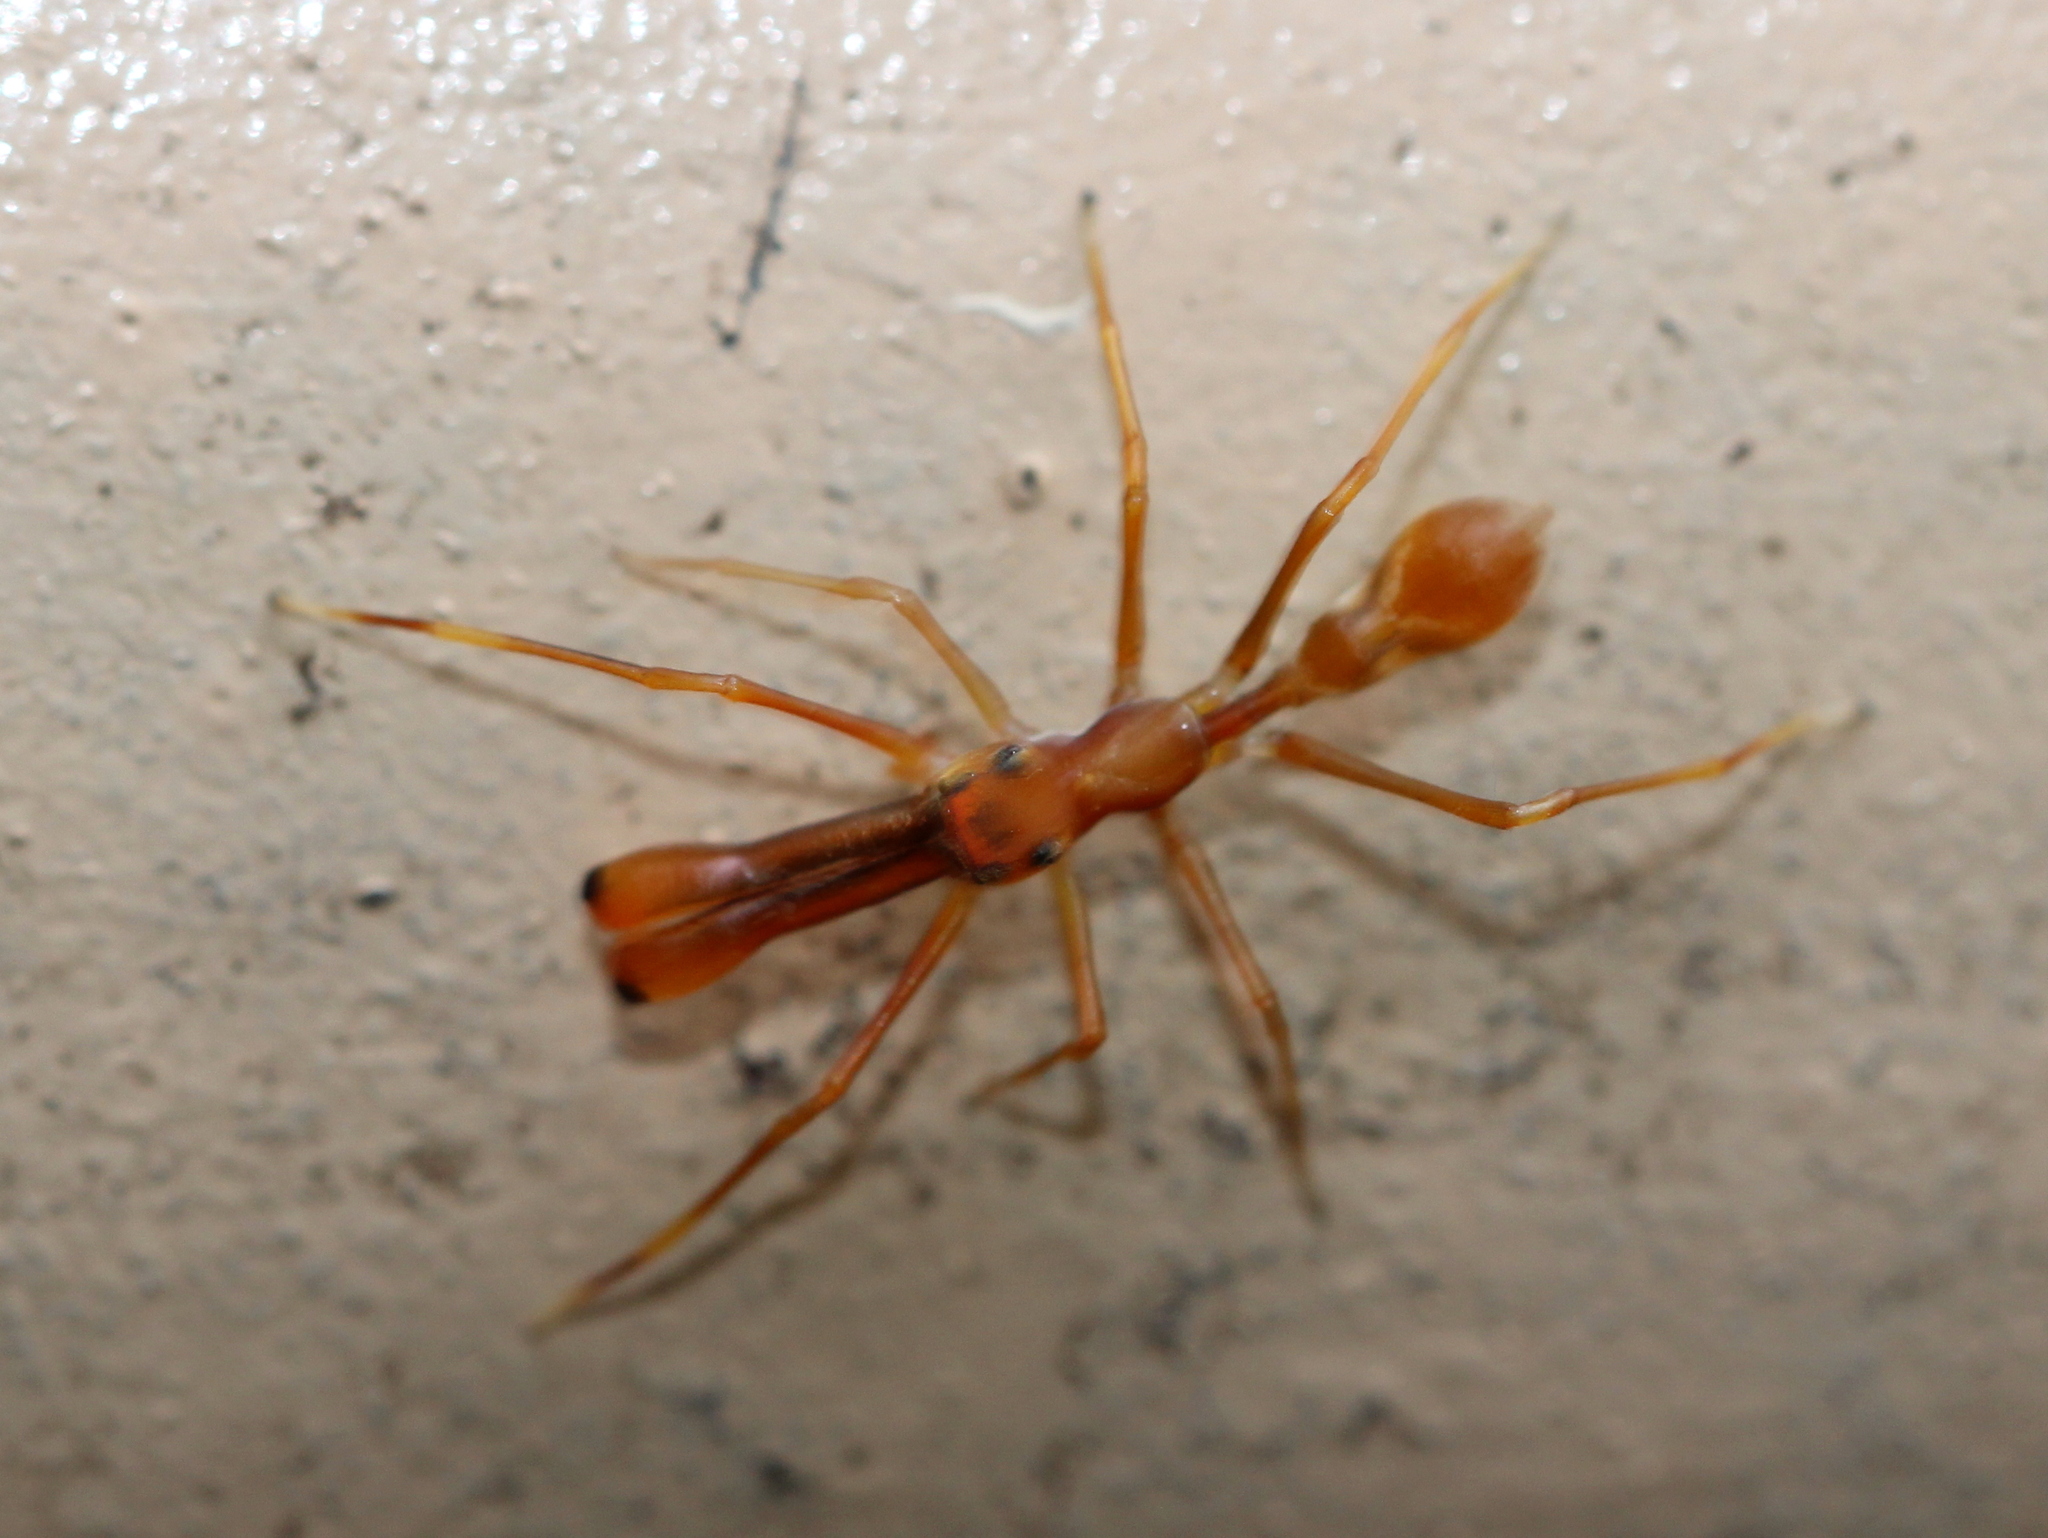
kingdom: Animalia
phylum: Arthropoda
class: Arachnida
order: Araneae
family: Salticidae
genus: Myrmaplata
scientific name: Myrmaplata plataleoides
